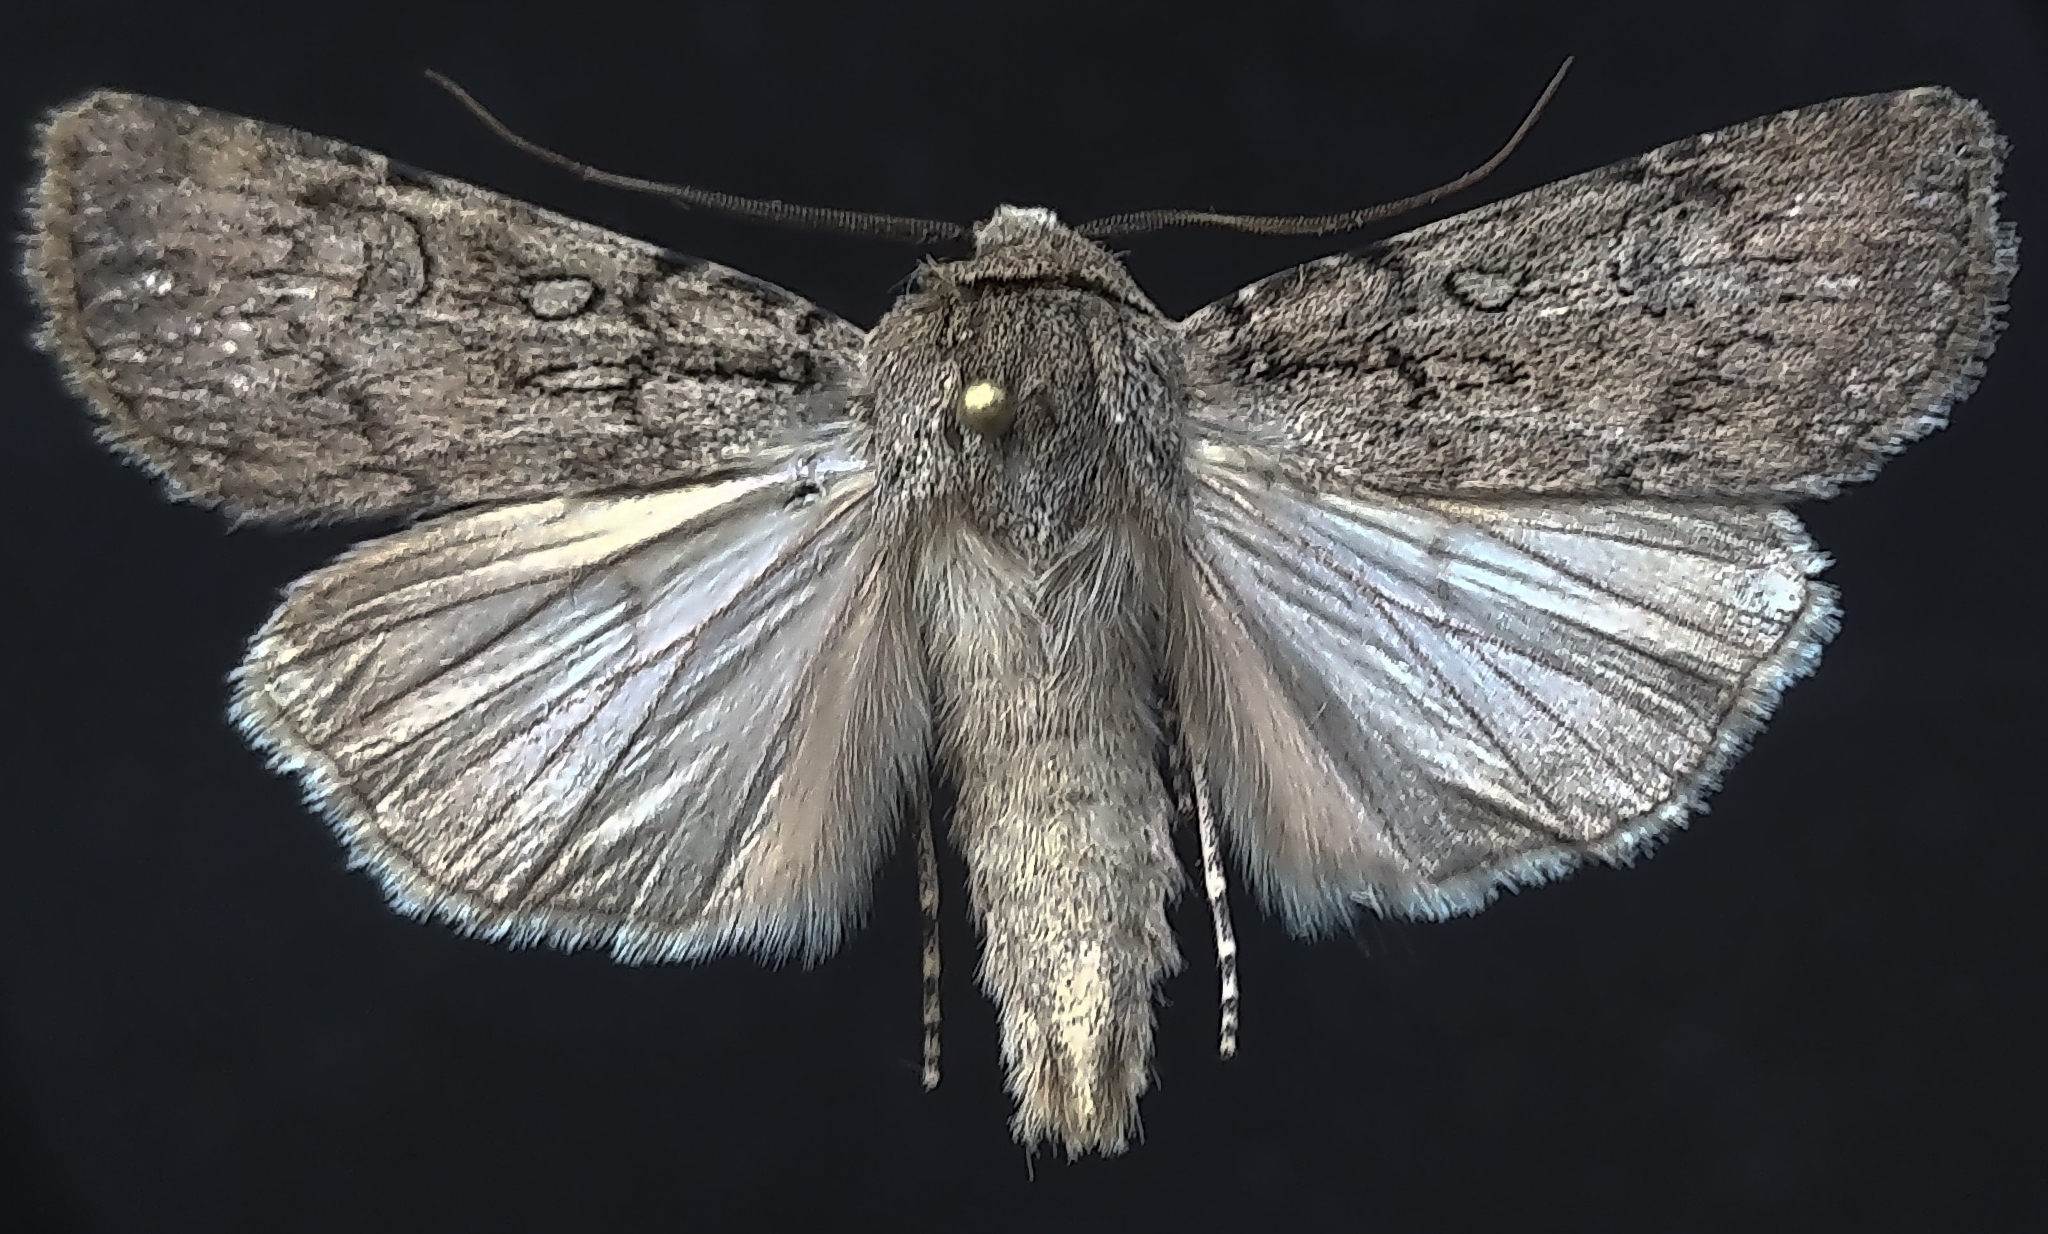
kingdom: Animalia
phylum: Arthropoda
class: Insecta
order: Lepidoptera
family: Noctuidae
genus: Euxoa
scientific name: Euxoa choris
